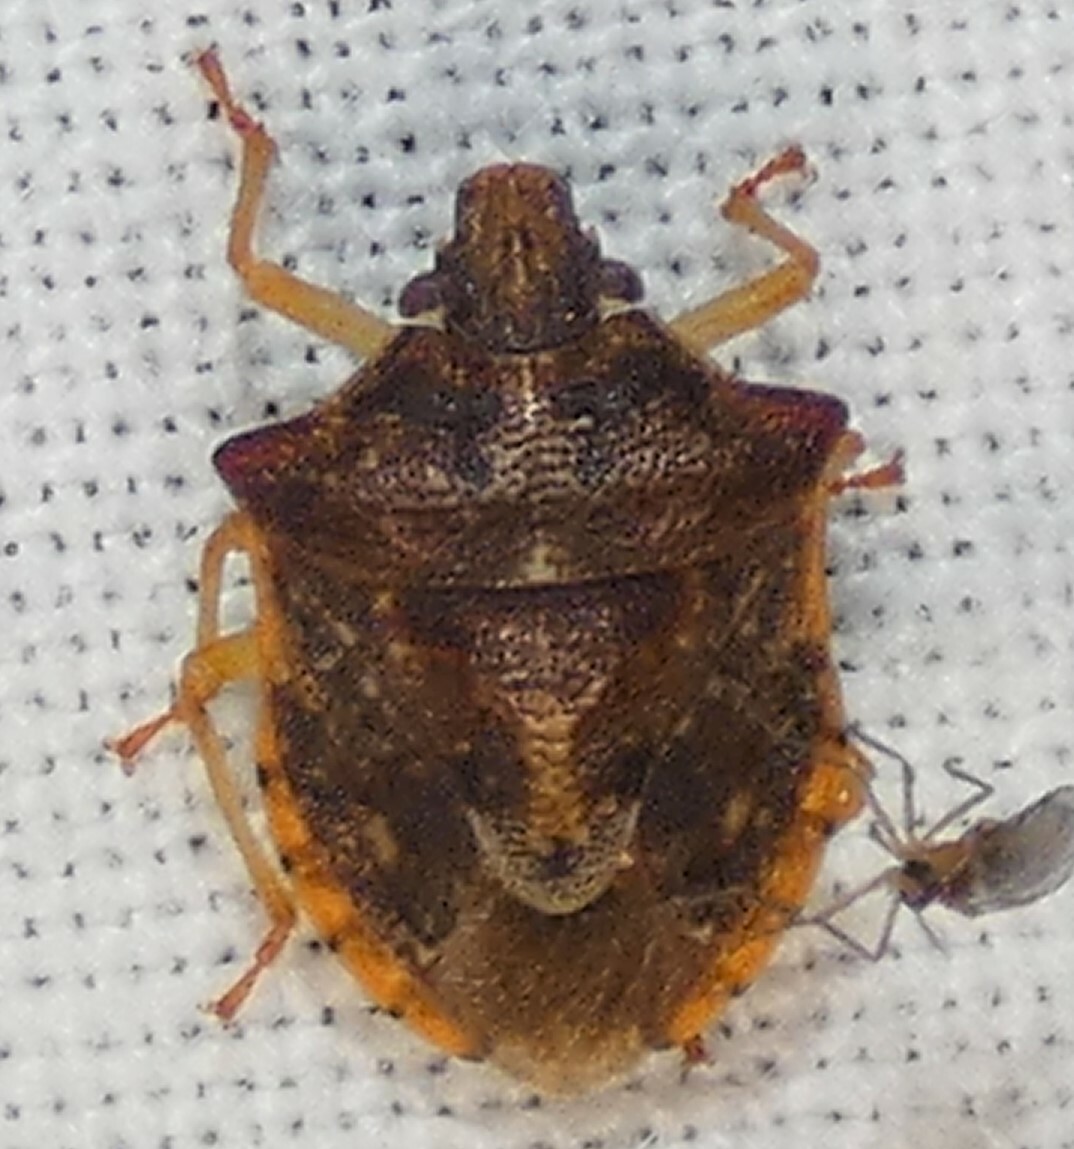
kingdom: Animalia
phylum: Arthropoda
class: Insecta
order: Hemiptera
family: Pentatomidae
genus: Dendrocoris
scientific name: Dendrocoris humeralis
